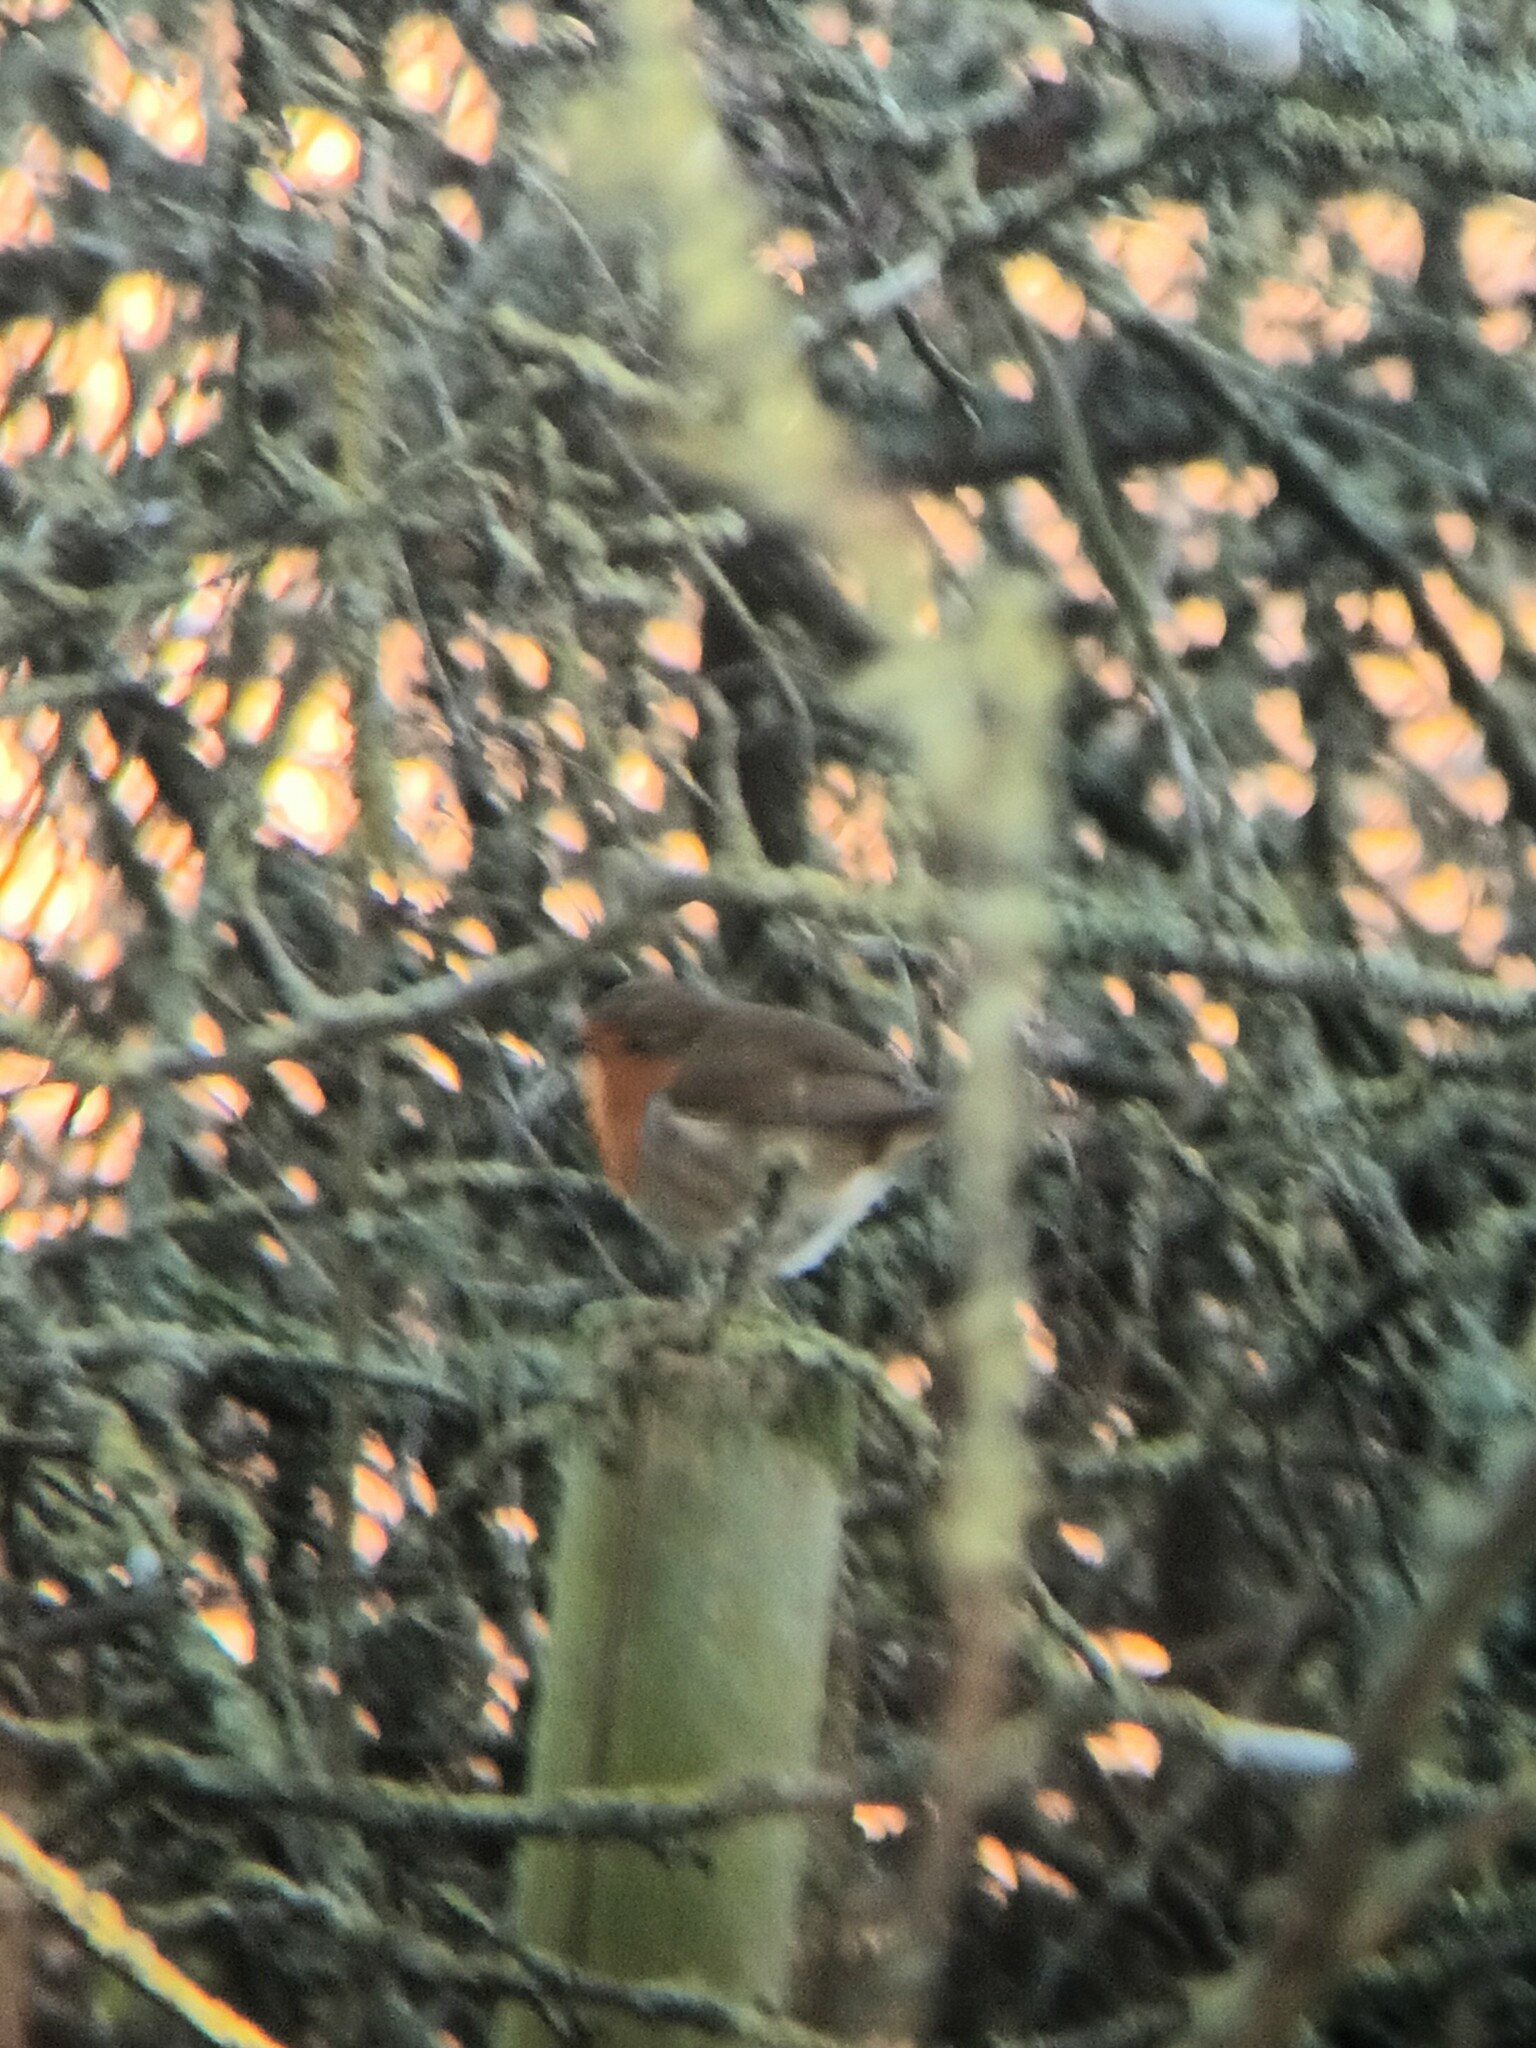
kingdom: Animalia
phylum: Chordata
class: Aves
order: Passeriformes
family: Muscicapidae
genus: Erithacus
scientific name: Erithacus rubecula
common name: European robin
